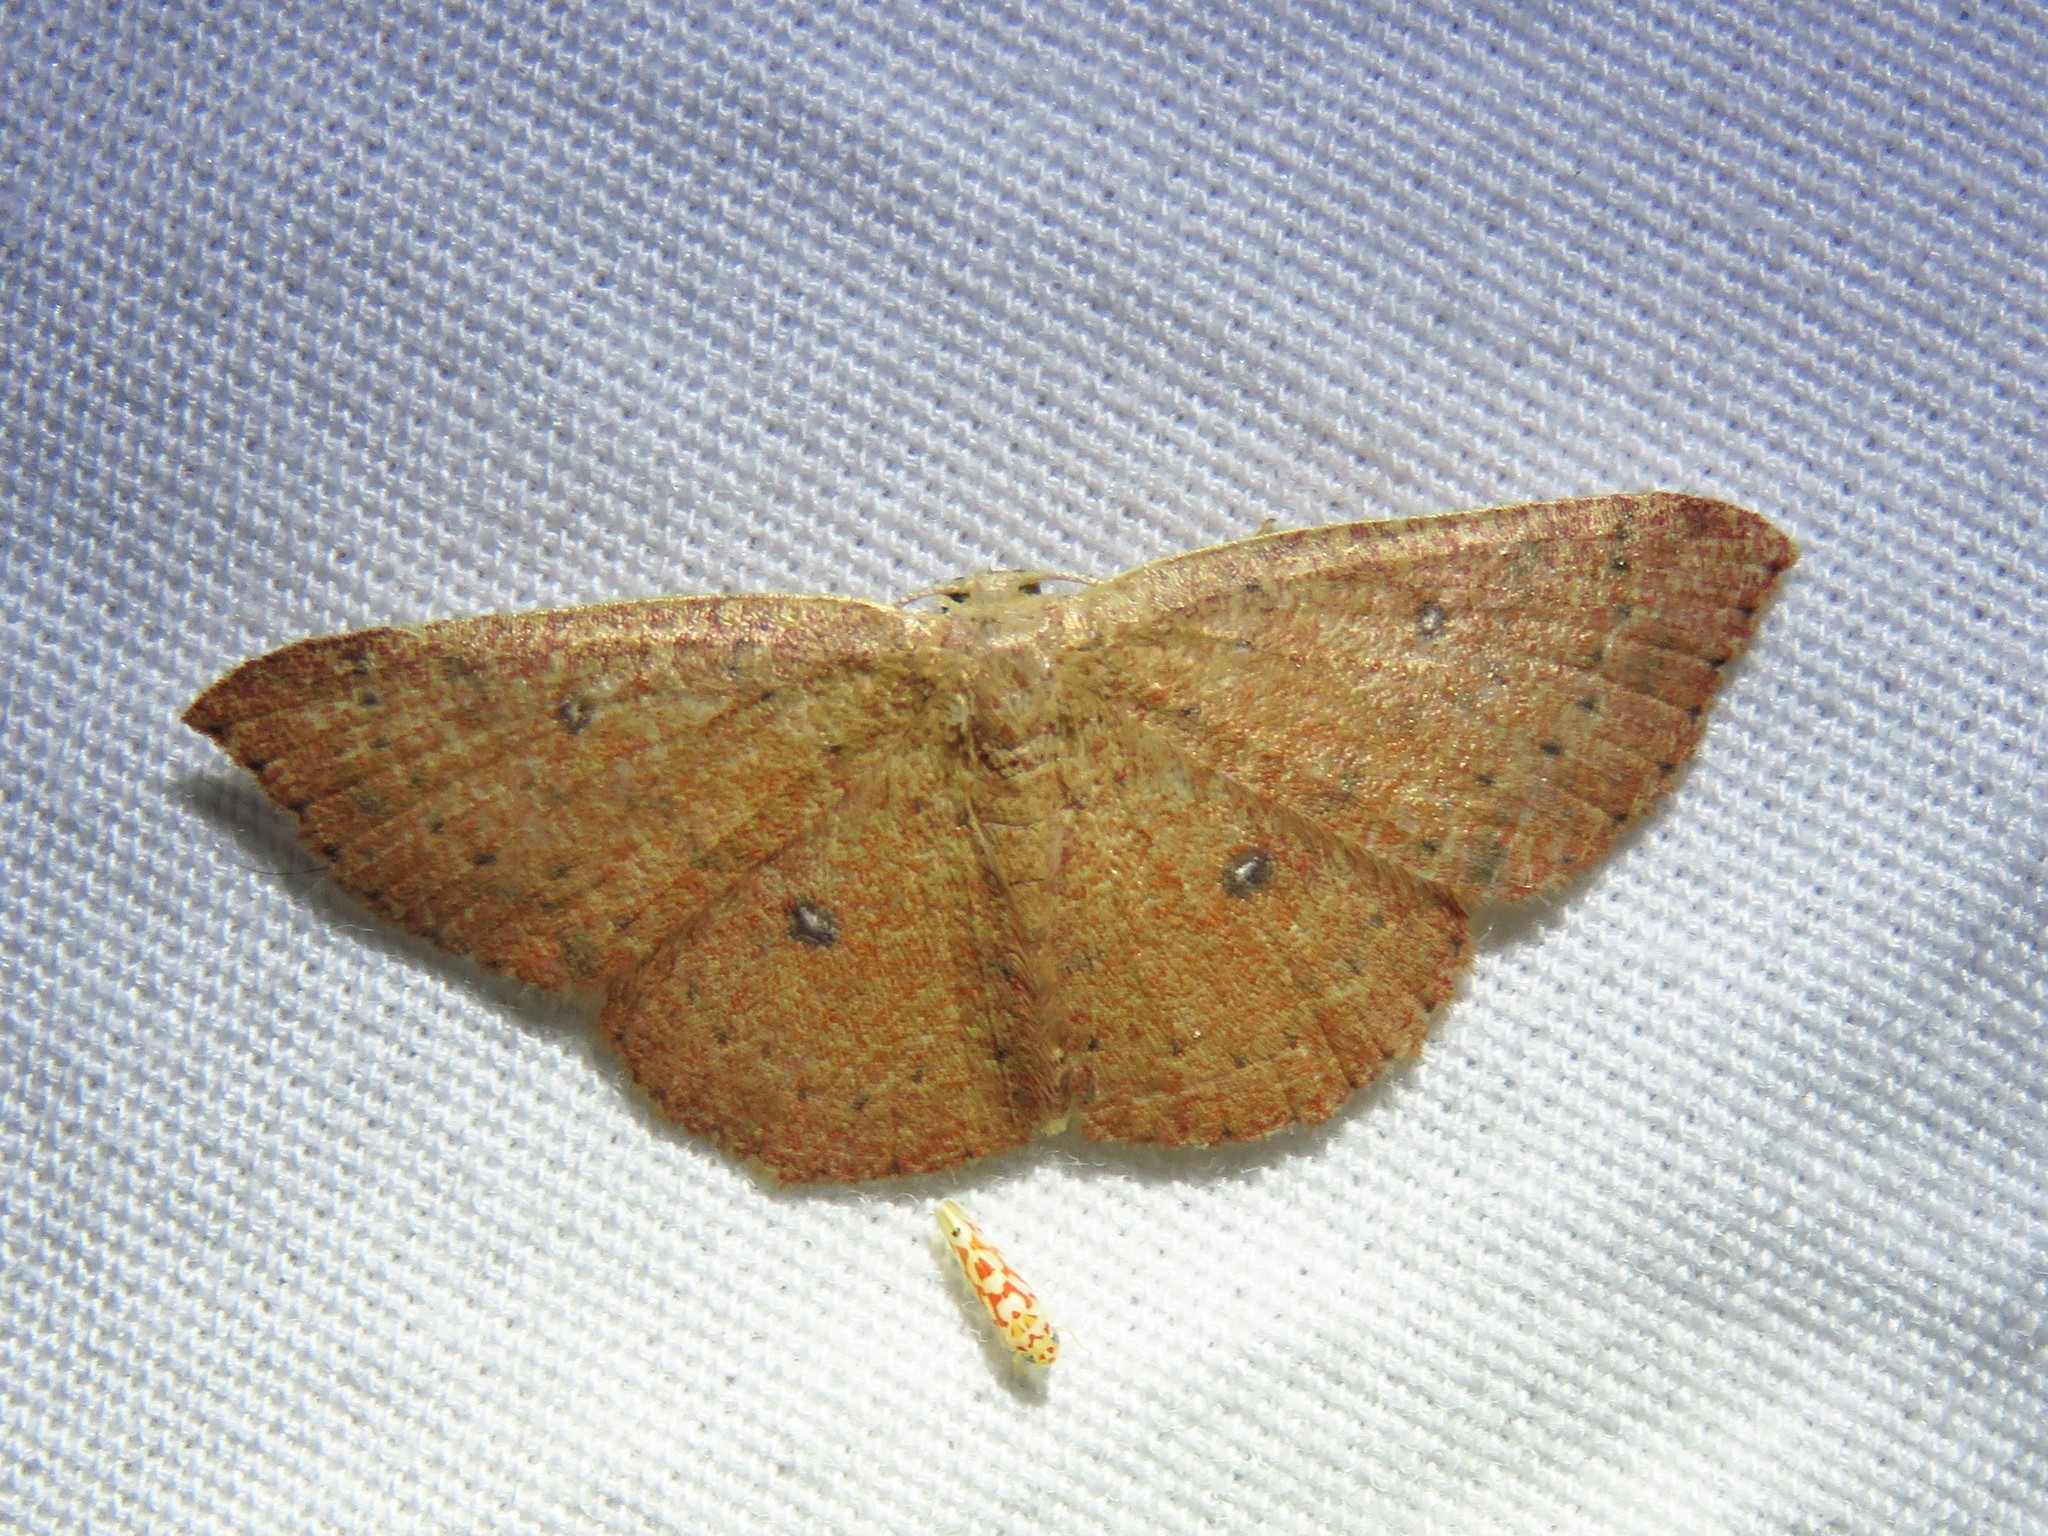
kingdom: Animalia
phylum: Arthropoda
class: Insecta
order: Lepidoptera
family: Geometridae
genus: Cyclophora
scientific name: Cyclophora packardi
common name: Packard's wave
